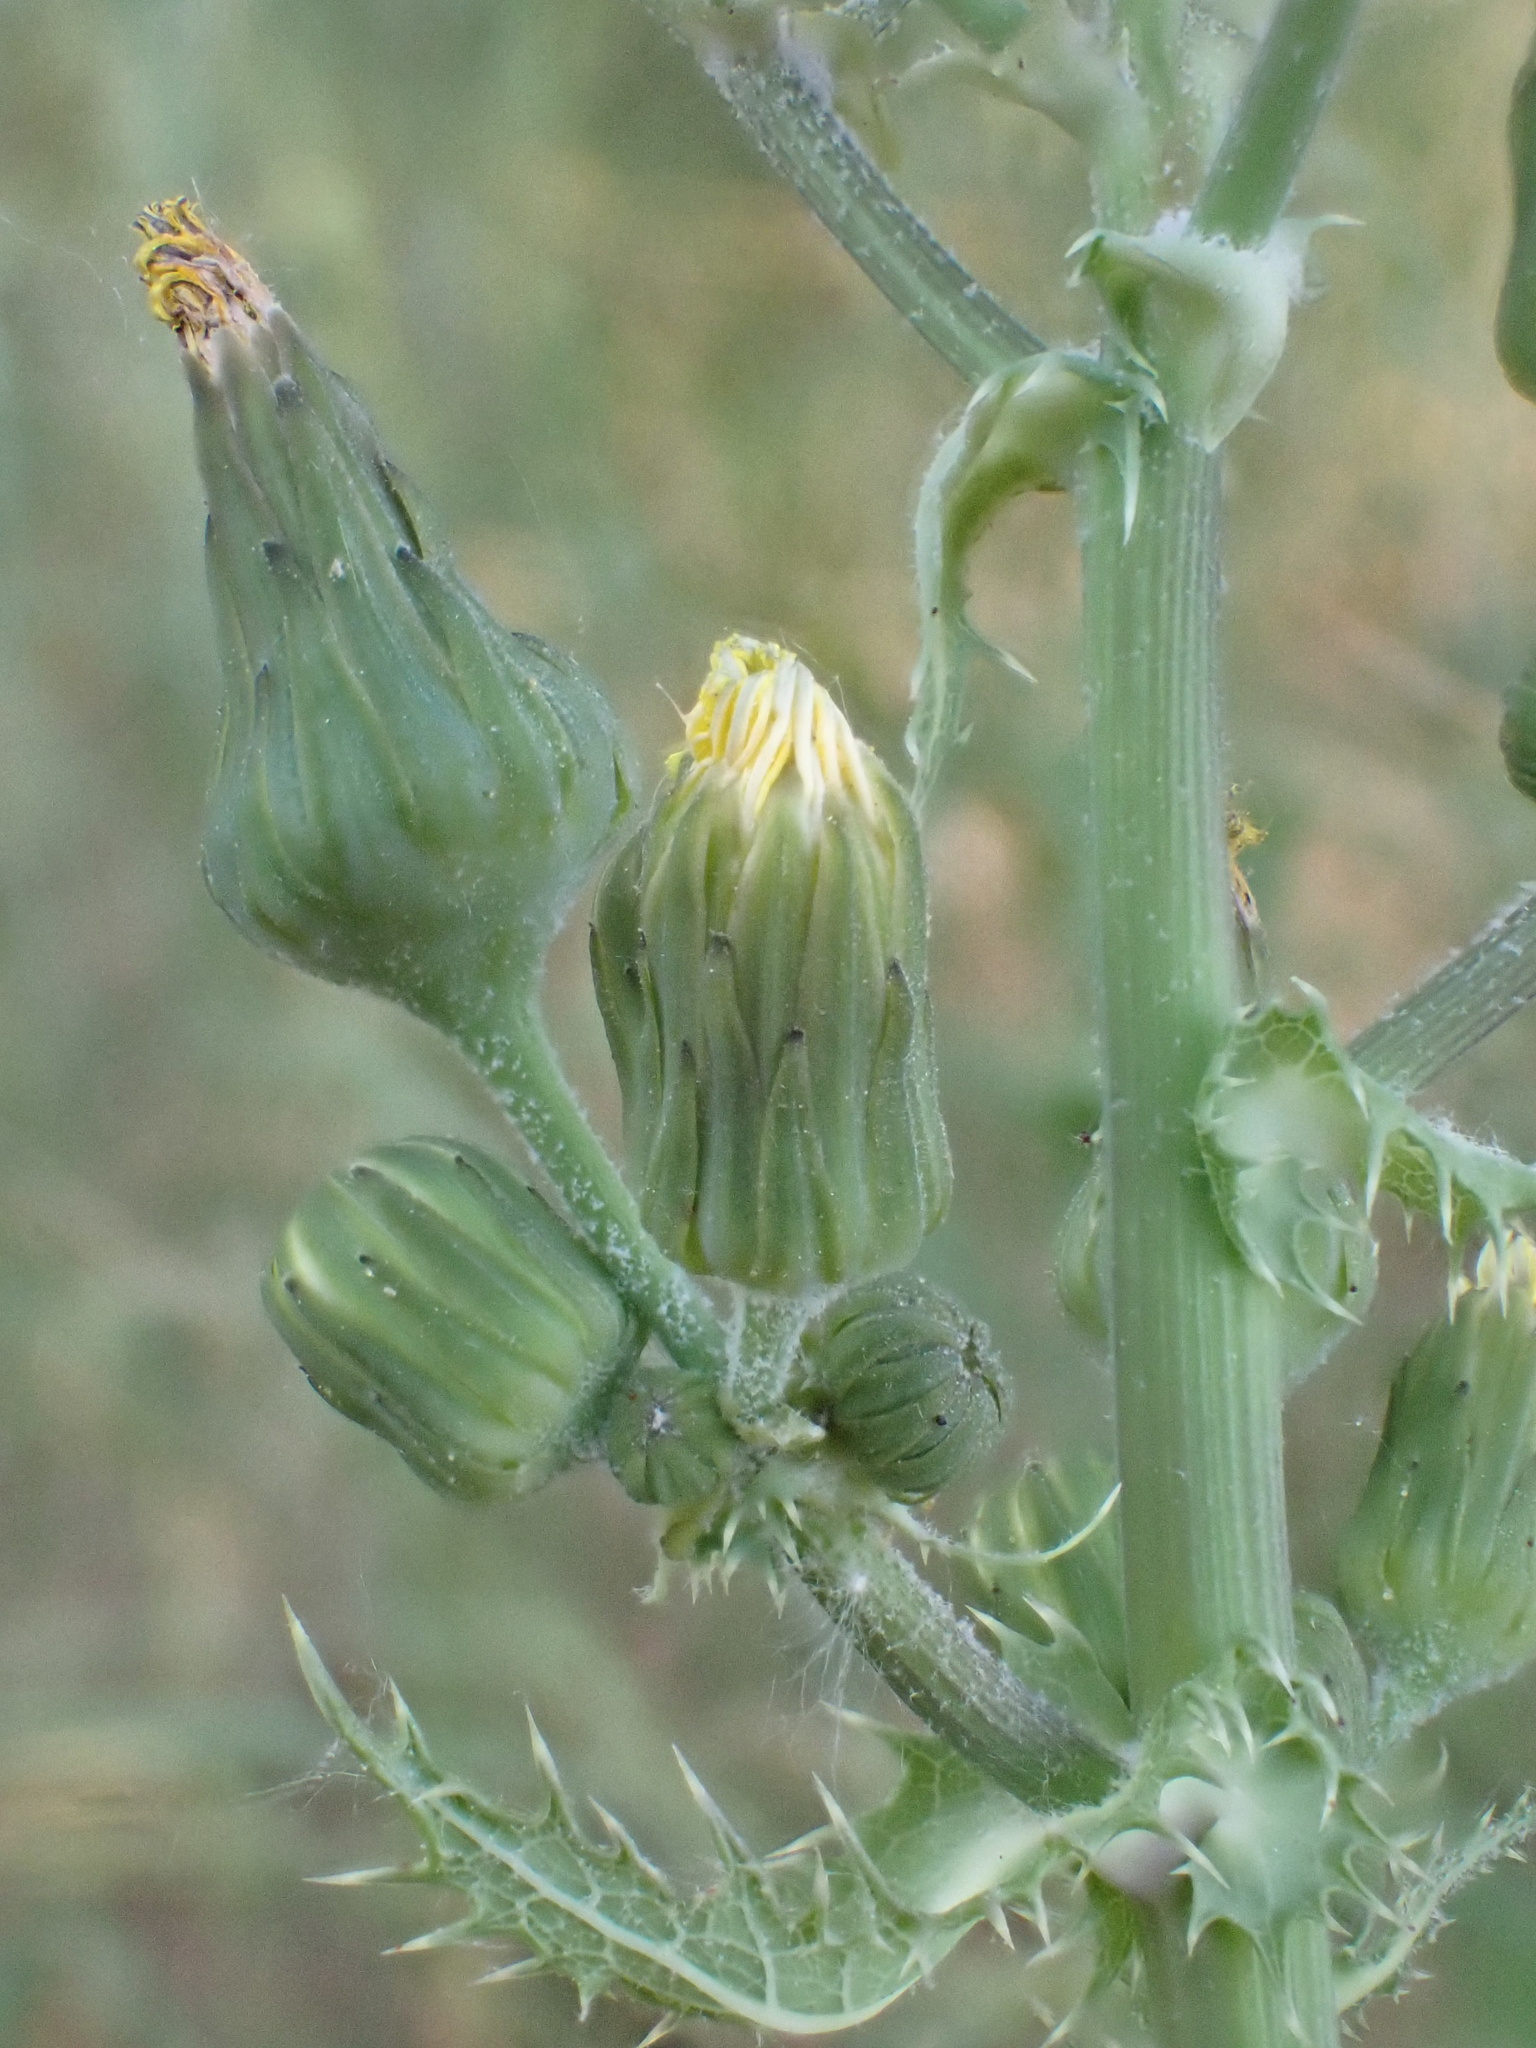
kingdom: Plantae
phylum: Tracheophyta
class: Magnoliopsida
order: Asterales
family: Asteraceae
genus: Sonchus
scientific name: Sonchus asper
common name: Prickly sow-thistle
